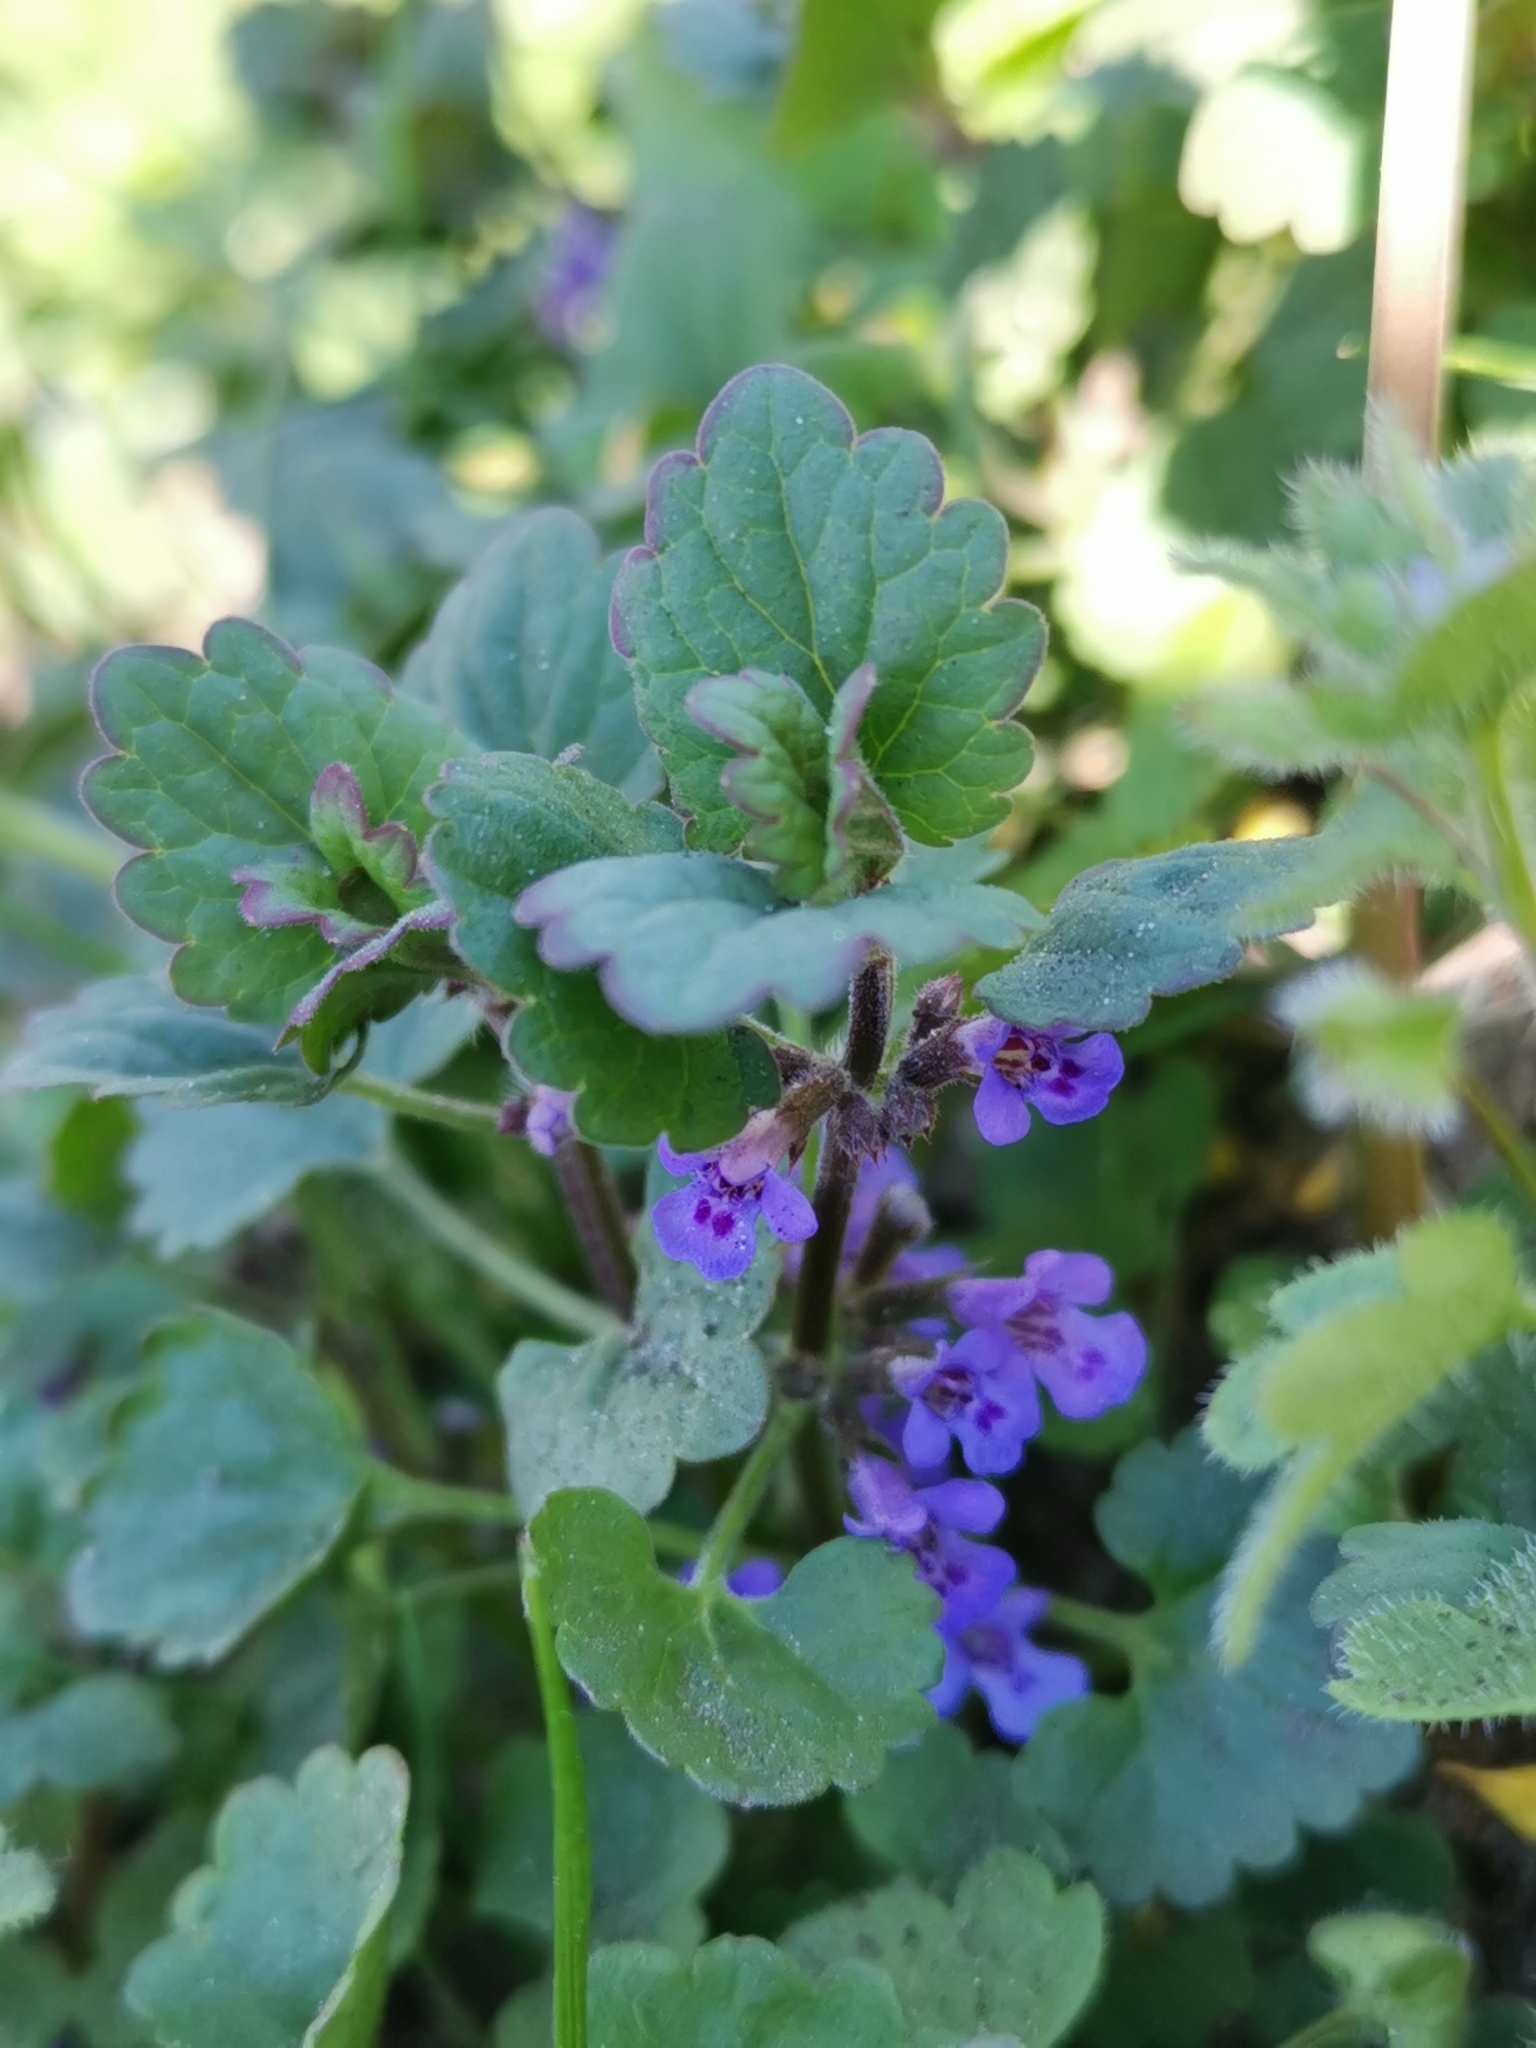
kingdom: Plantae
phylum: Tracheophyta
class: Magnoliopsida
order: Lamiales
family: Lamiaceae
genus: Glechoma
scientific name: Glechoma hederacea
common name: Ground ivy
